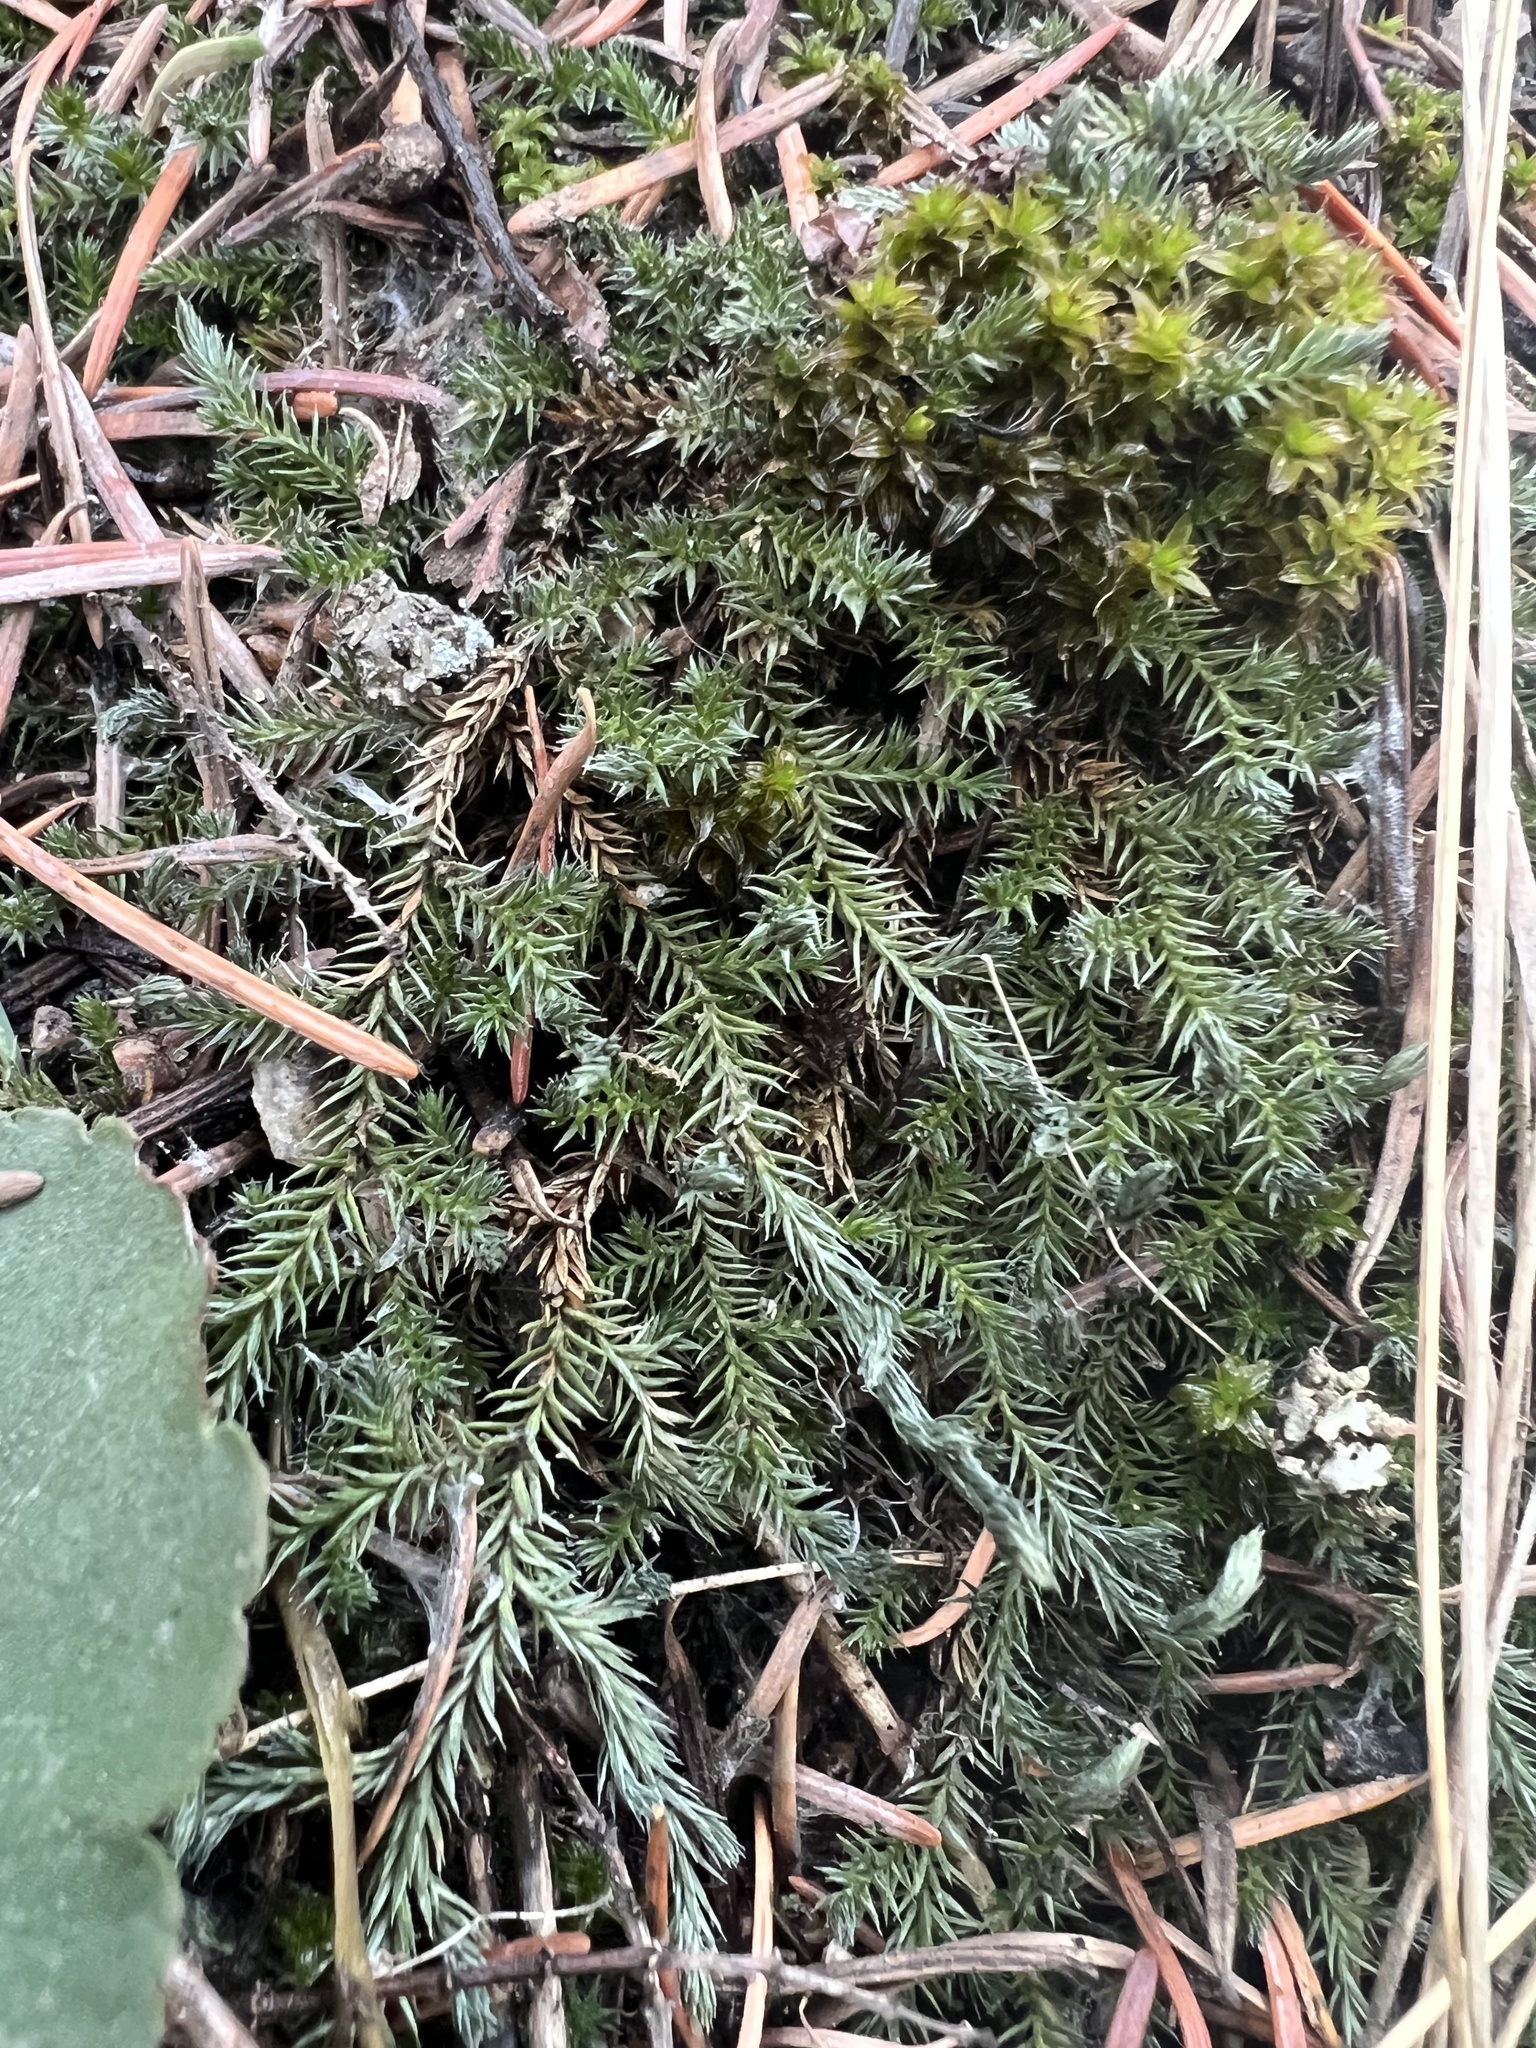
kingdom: Plantae
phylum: Tracheophyta
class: Lycopodiopsida
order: Selaginellales
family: Selaginellaceae
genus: Selaginella
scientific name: Selaginella underwoodii
